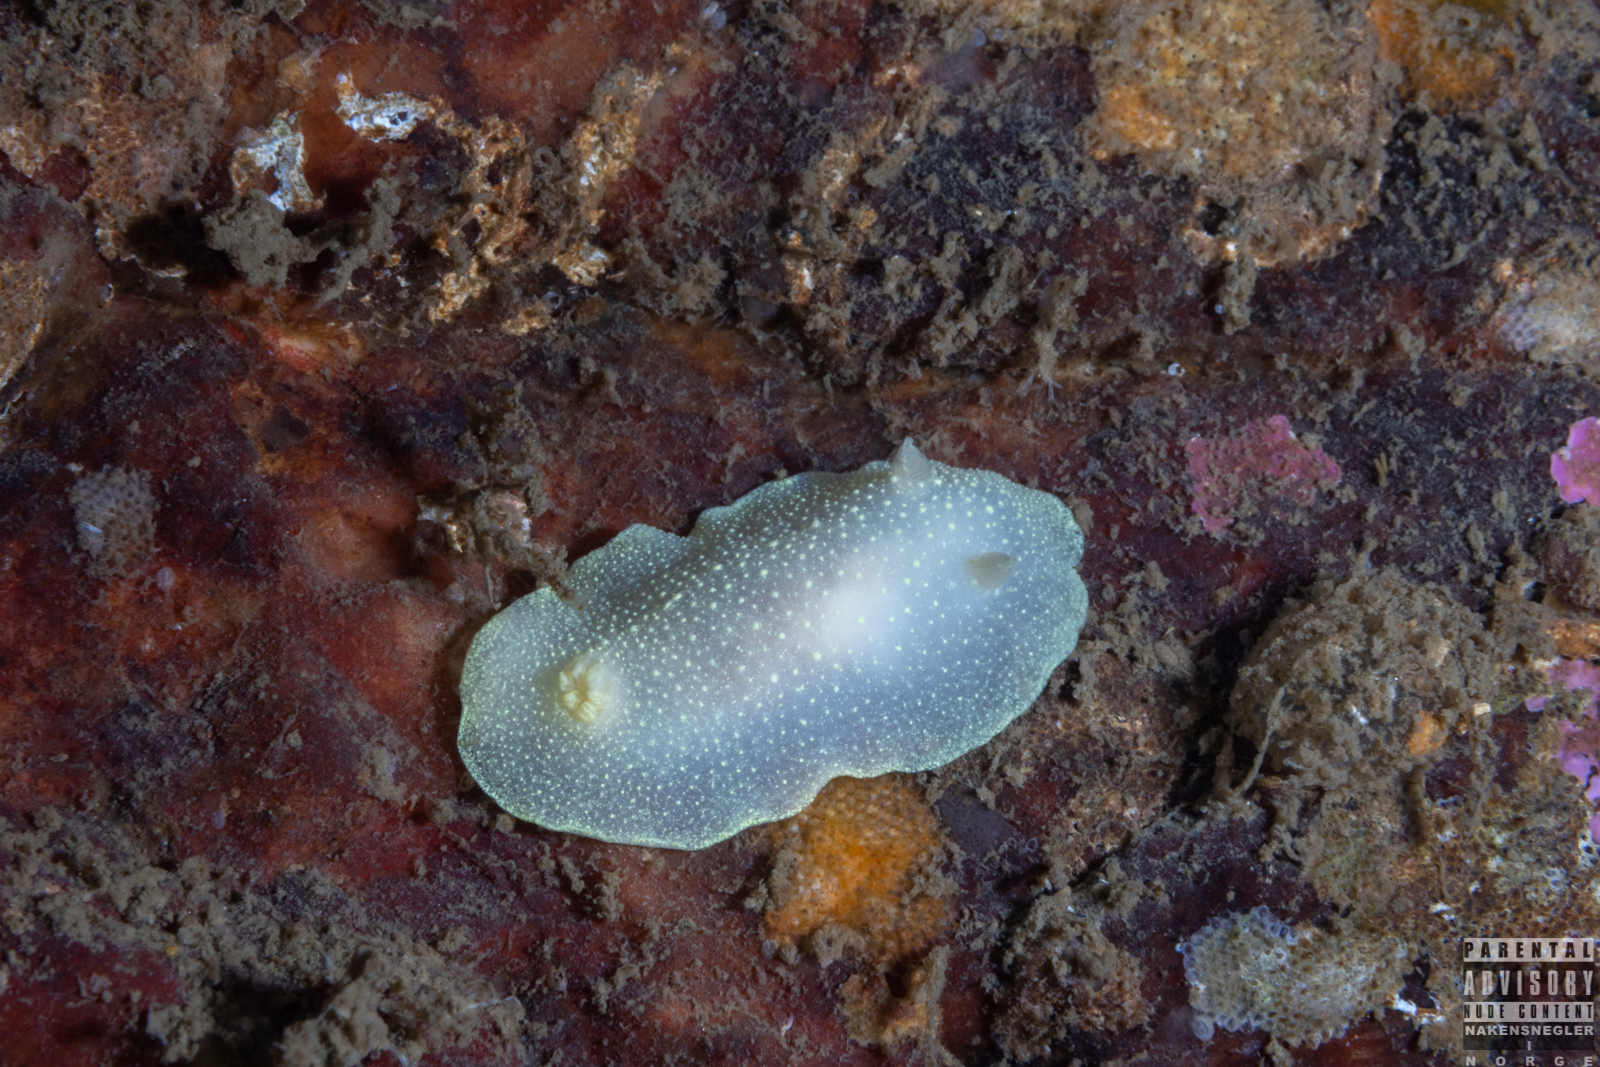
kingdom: Animalia
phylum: Mollusca
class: Gastropoda
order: Nudibranchia
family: Cadlinidae
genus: Cadlina
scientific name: Cadlina laevis
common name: White atlantic cadlina
